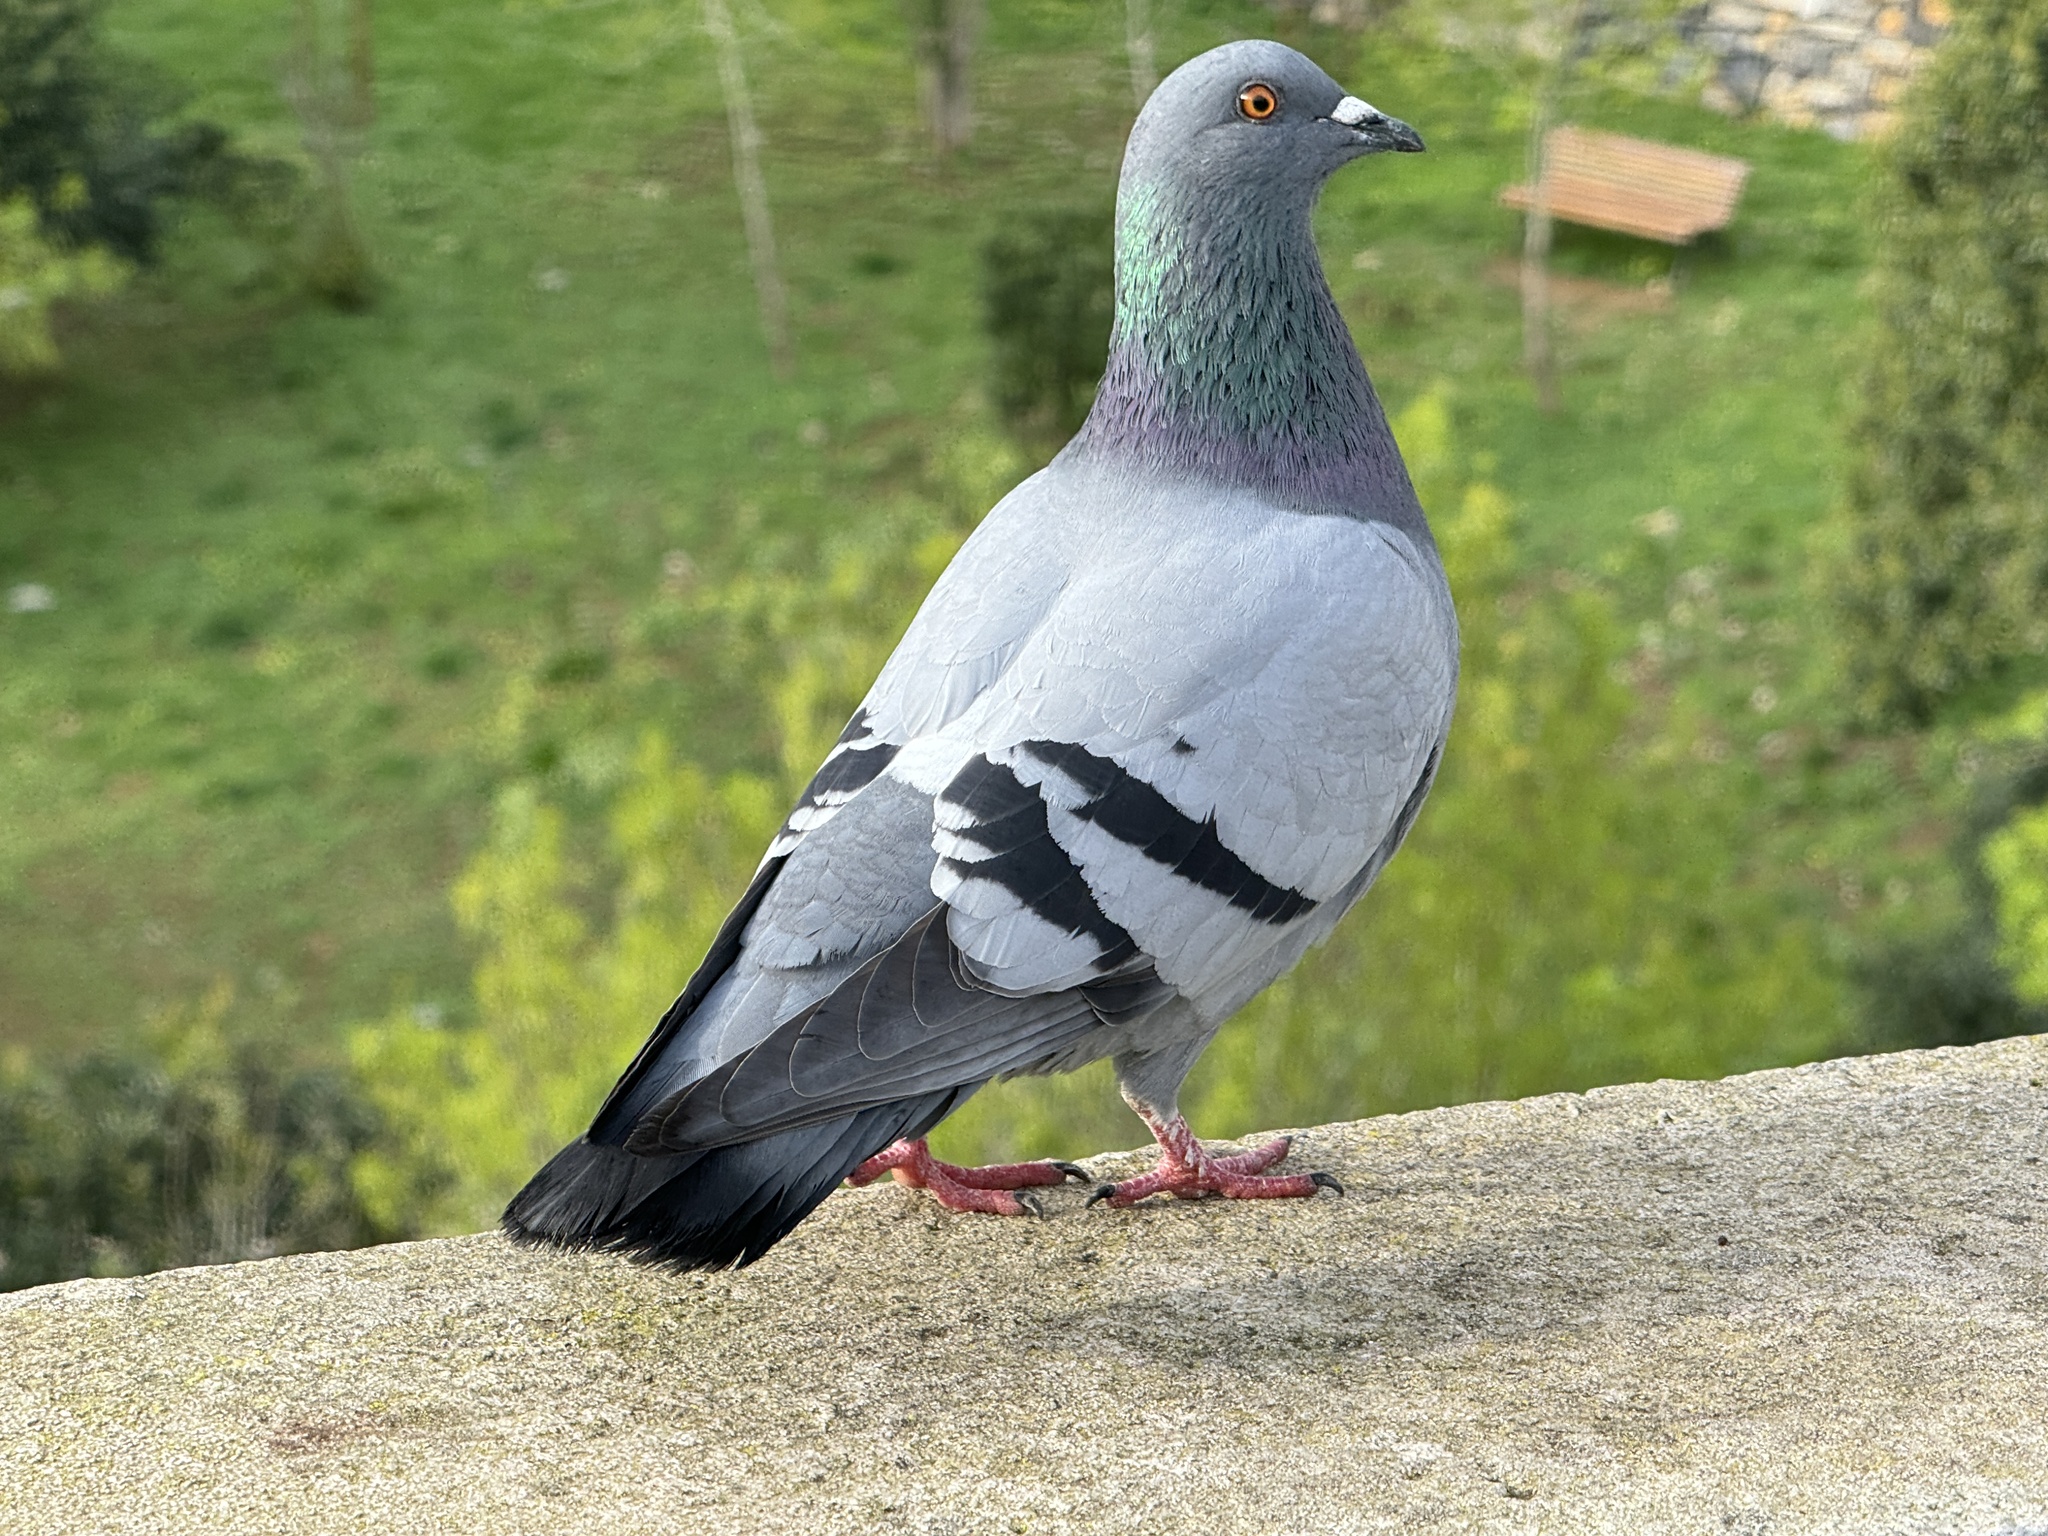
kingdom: Animalia
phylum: Chordata
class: Aves
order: Columbiformes
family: Columbidae
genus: Columba
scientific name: Columba livia
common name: Rock pigeon
